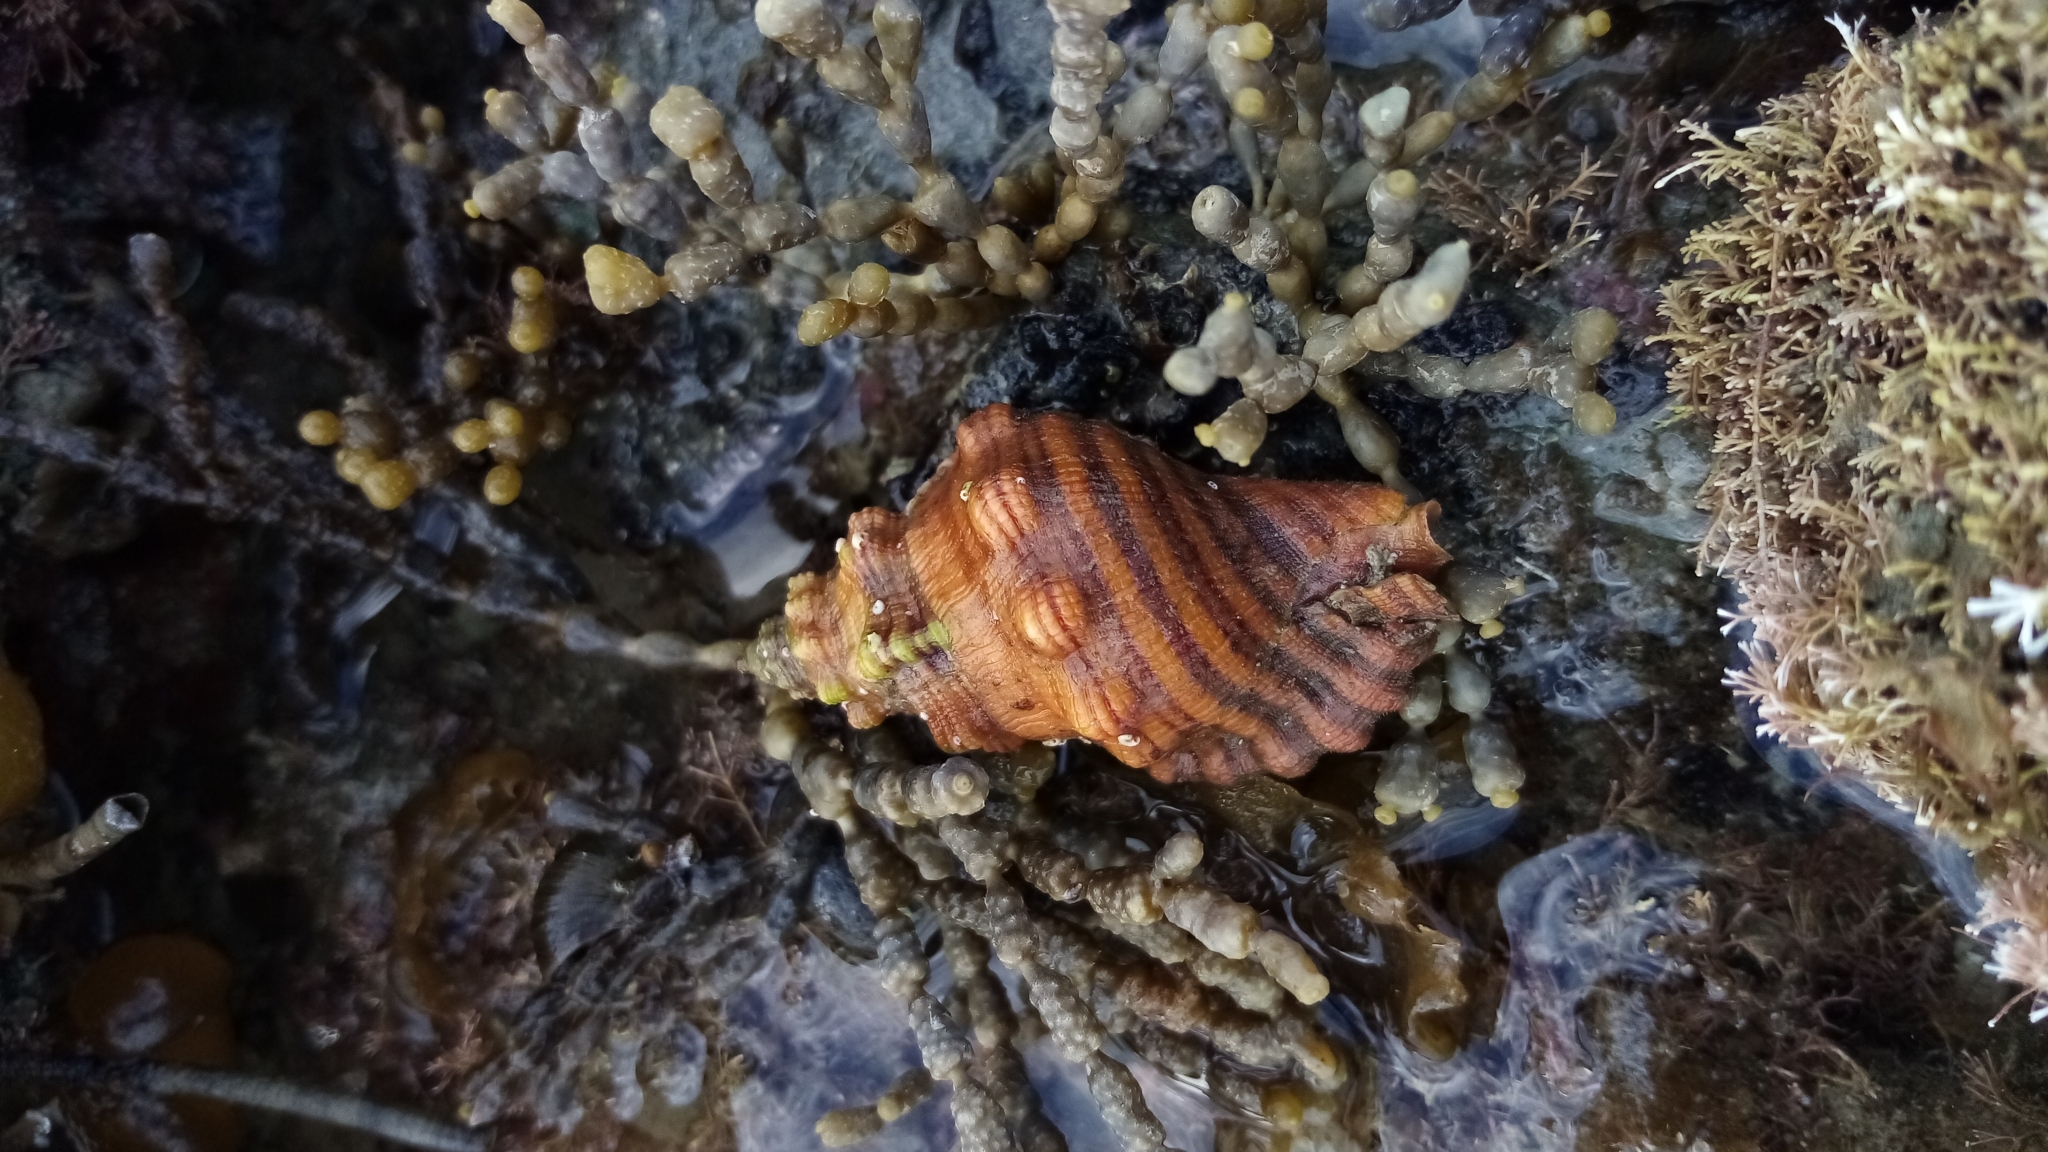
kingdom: Animalia
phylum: Mollusca
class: Gastropoda
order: Littorinimorpha
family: Cymatiidae
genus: Cabestana
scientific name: Cabestana spengleri
